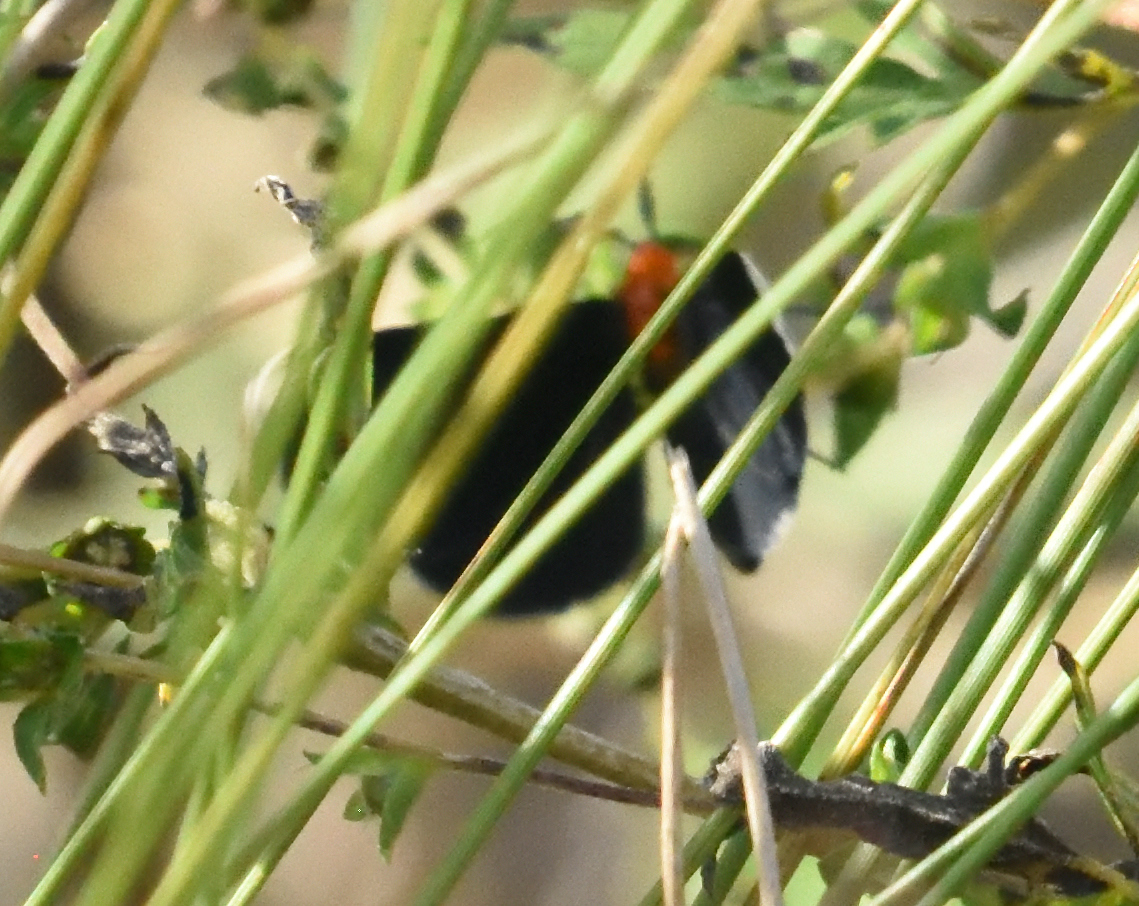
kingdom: Animalia
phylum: Arthropoda
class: Insecta
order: Lepidoptera
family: Geometridae
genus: Melanchroia
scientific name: Melanchroia chephise
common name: White-tipped black
